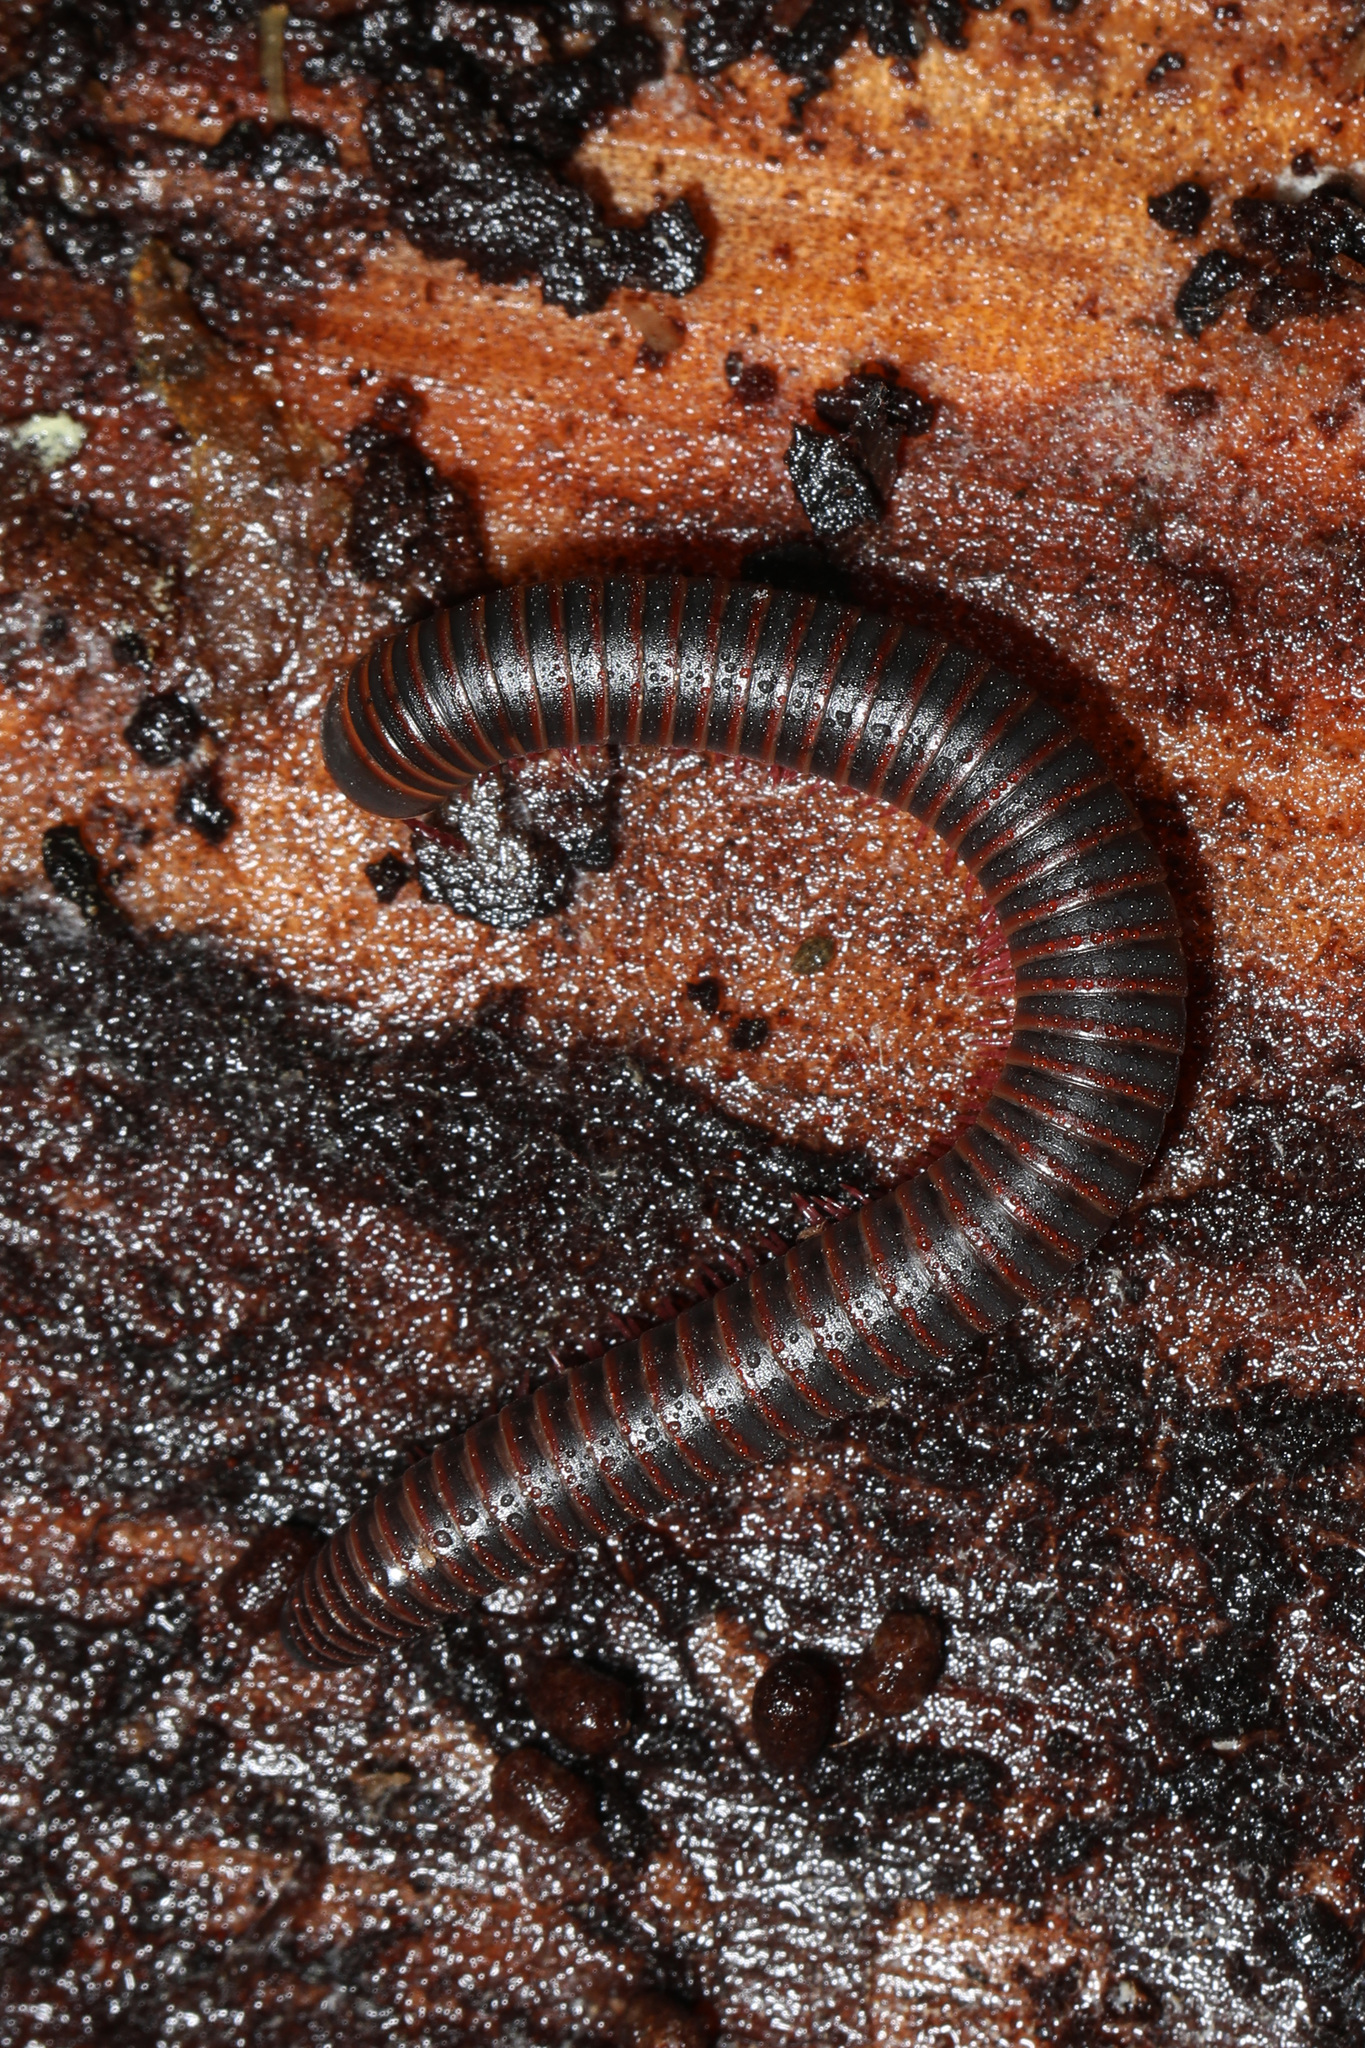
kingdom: Animalia
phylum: Arthropoda
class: Diplopoda
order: Spirobolida
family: Spirobolidae
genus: Narceus
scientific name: Narceus
